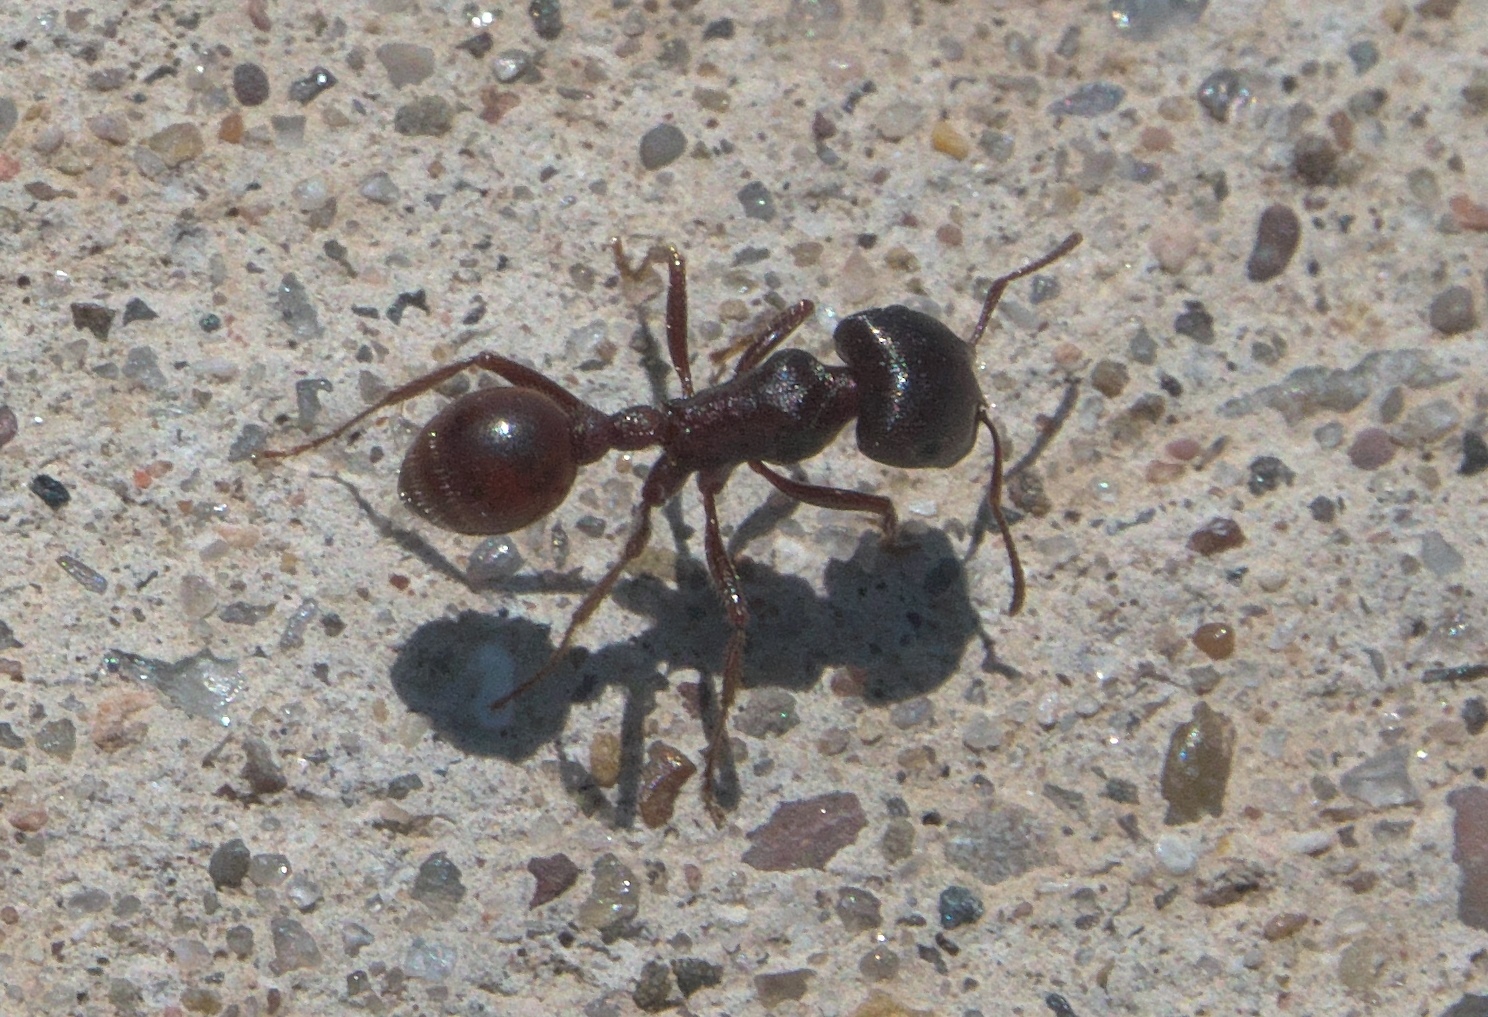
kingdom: Animalia
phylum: Arthropoda
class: Insecta
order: Hymenoptera
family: Formicidae
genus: Pogonomyrmex
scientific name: Pogonomyrmex rugosus
